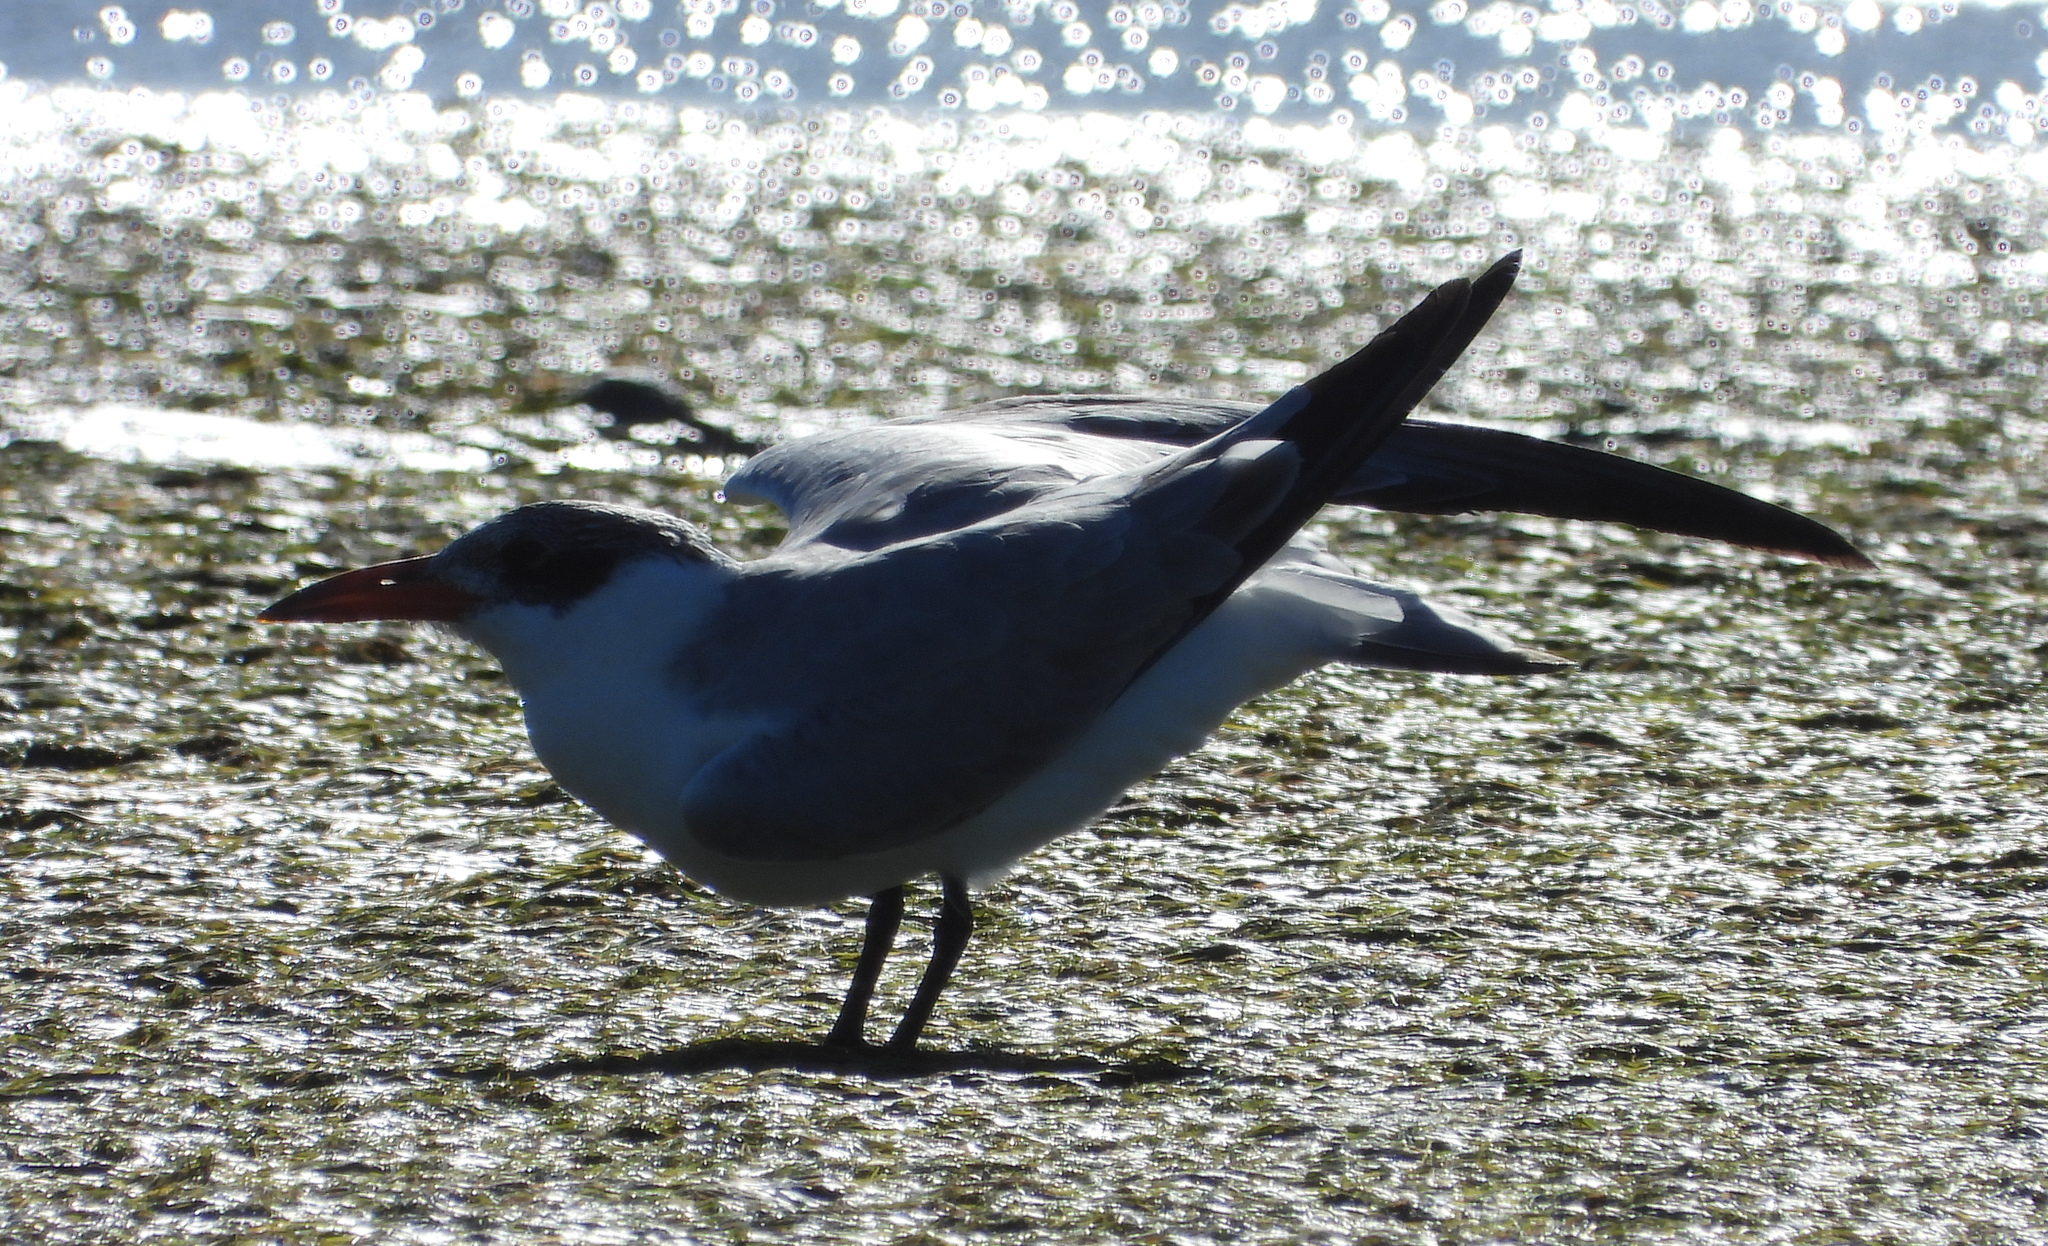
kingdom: Animalia
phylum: Chordata
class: Aves
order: Charadriiformes
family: Laridae
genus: Hydroprogne
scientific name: Hydroprogne caspia
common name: Caspian tern
